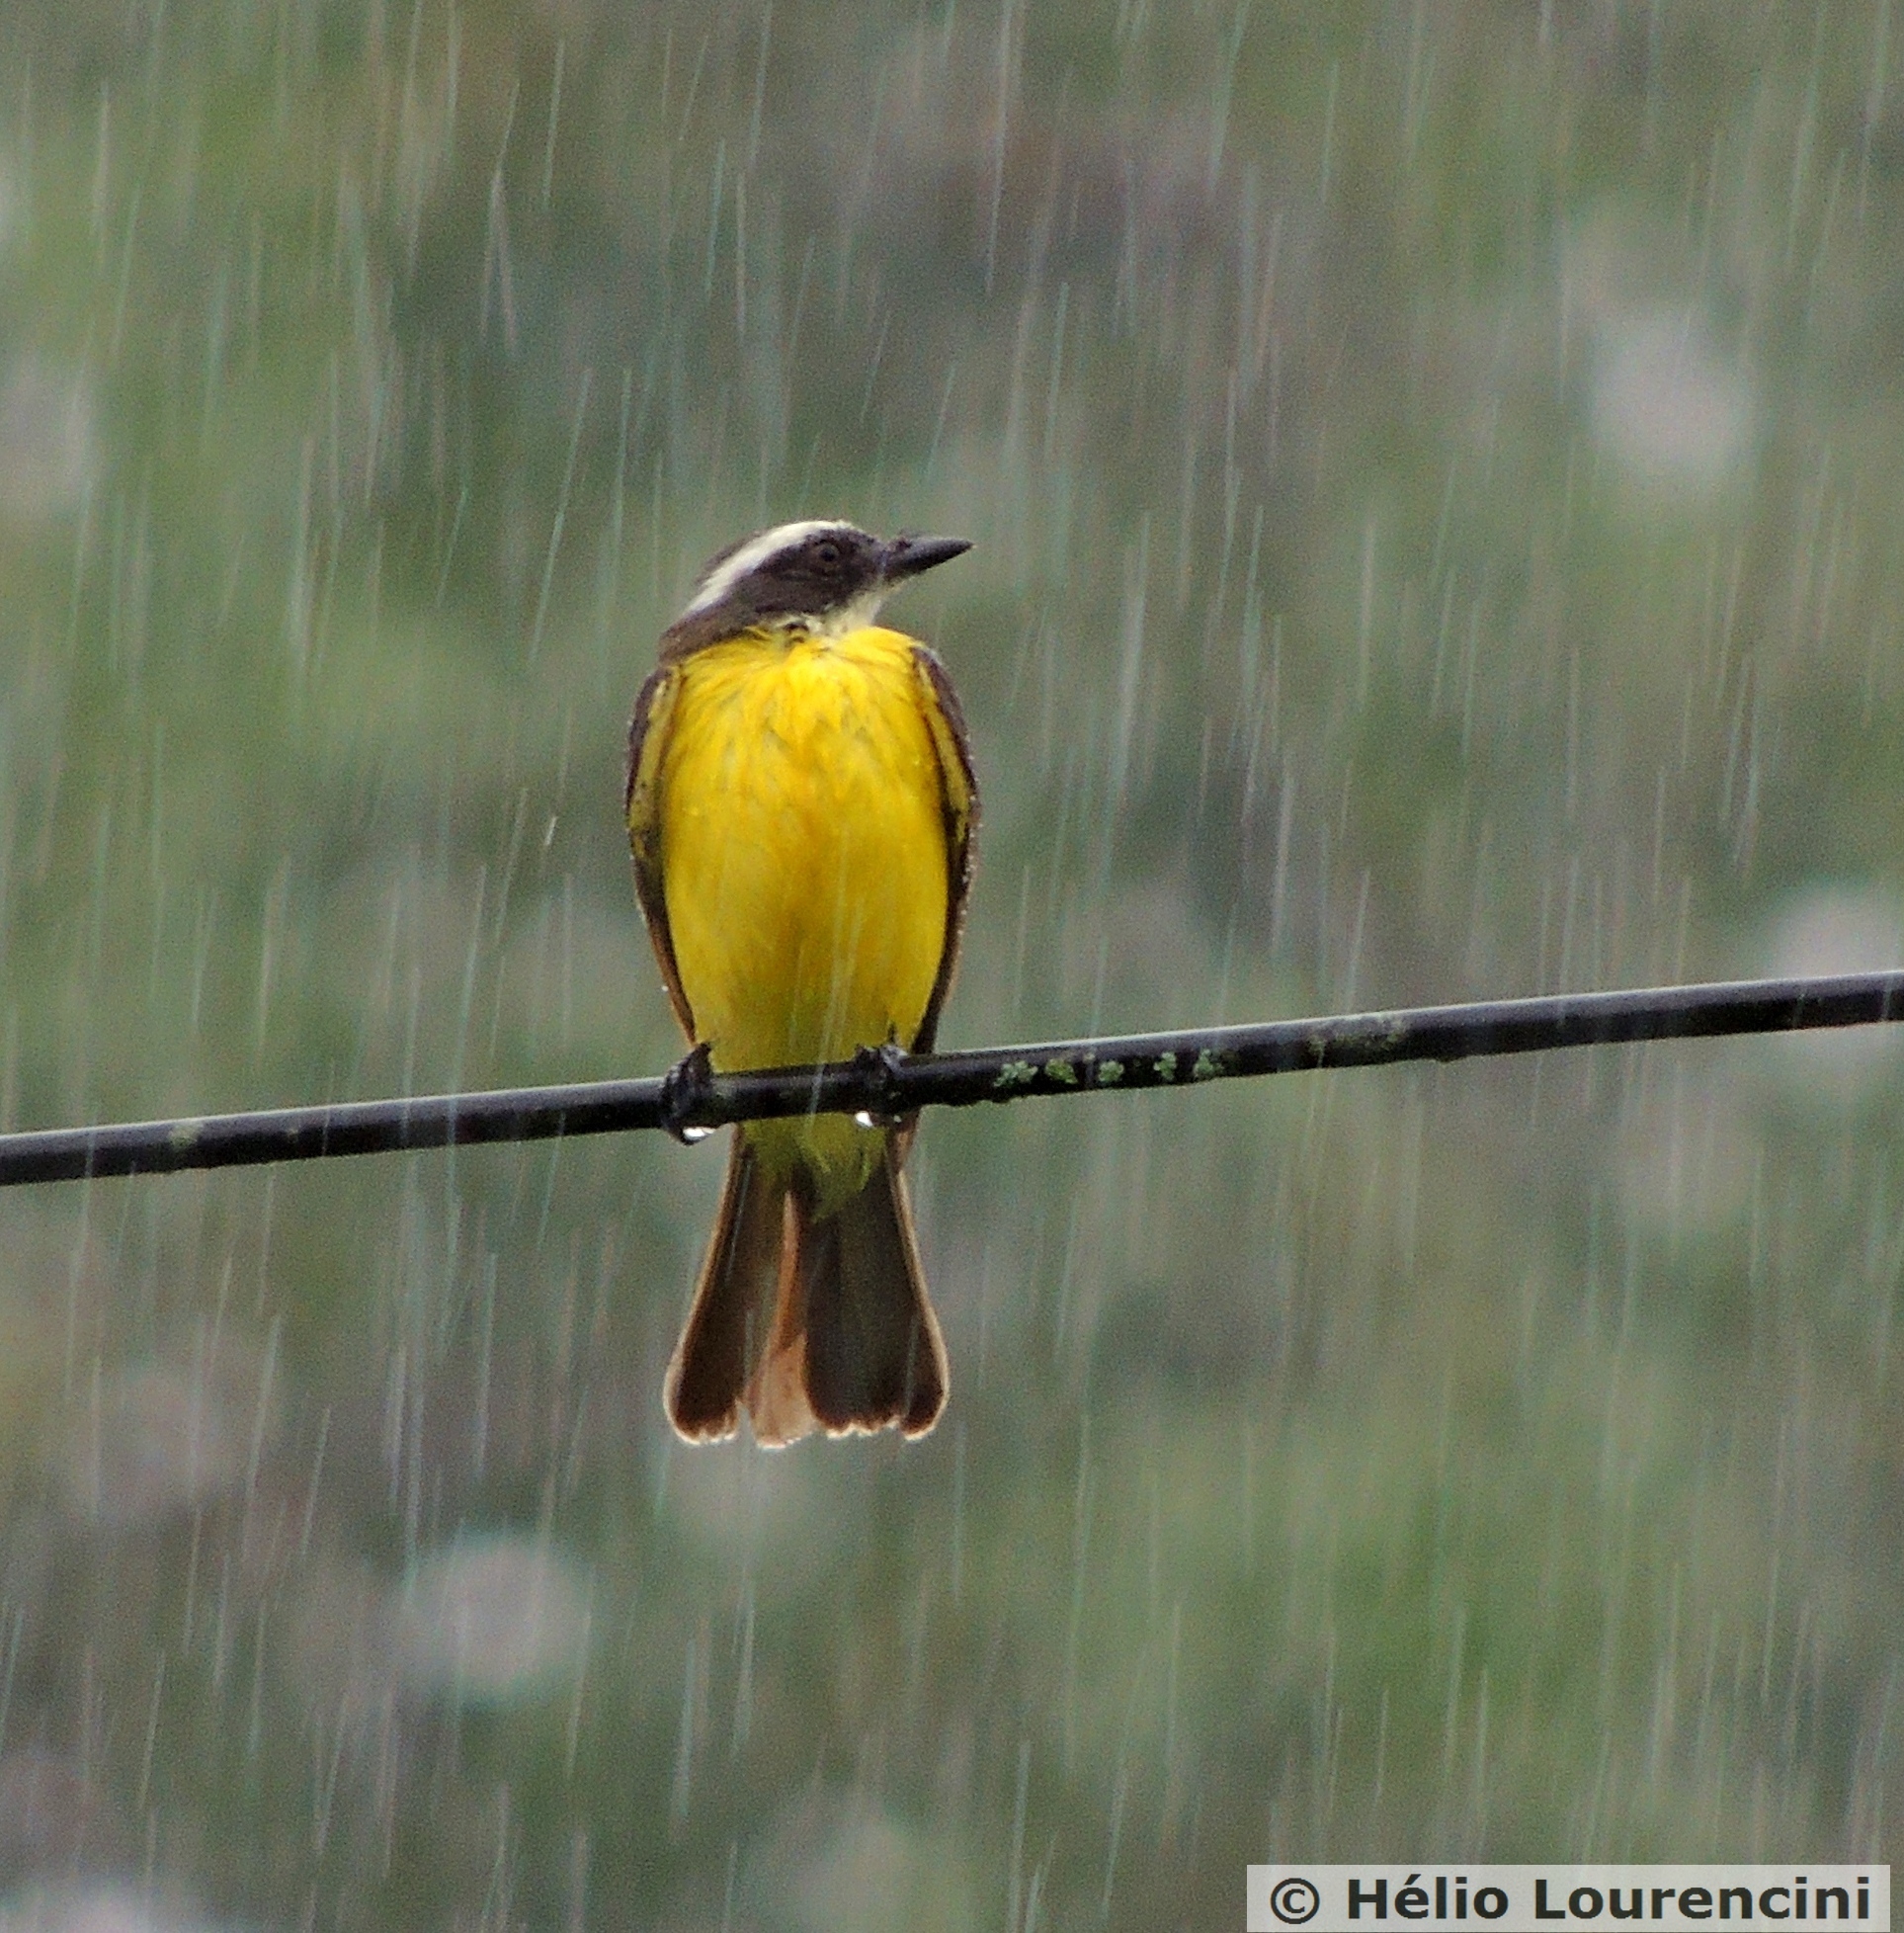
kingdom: Animalia
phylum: Chordata
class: Aves
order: Passeriformes
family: Tyrannidae
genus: Myiozetetes
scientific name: Myiozetetes similis
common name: Social flycatcher
